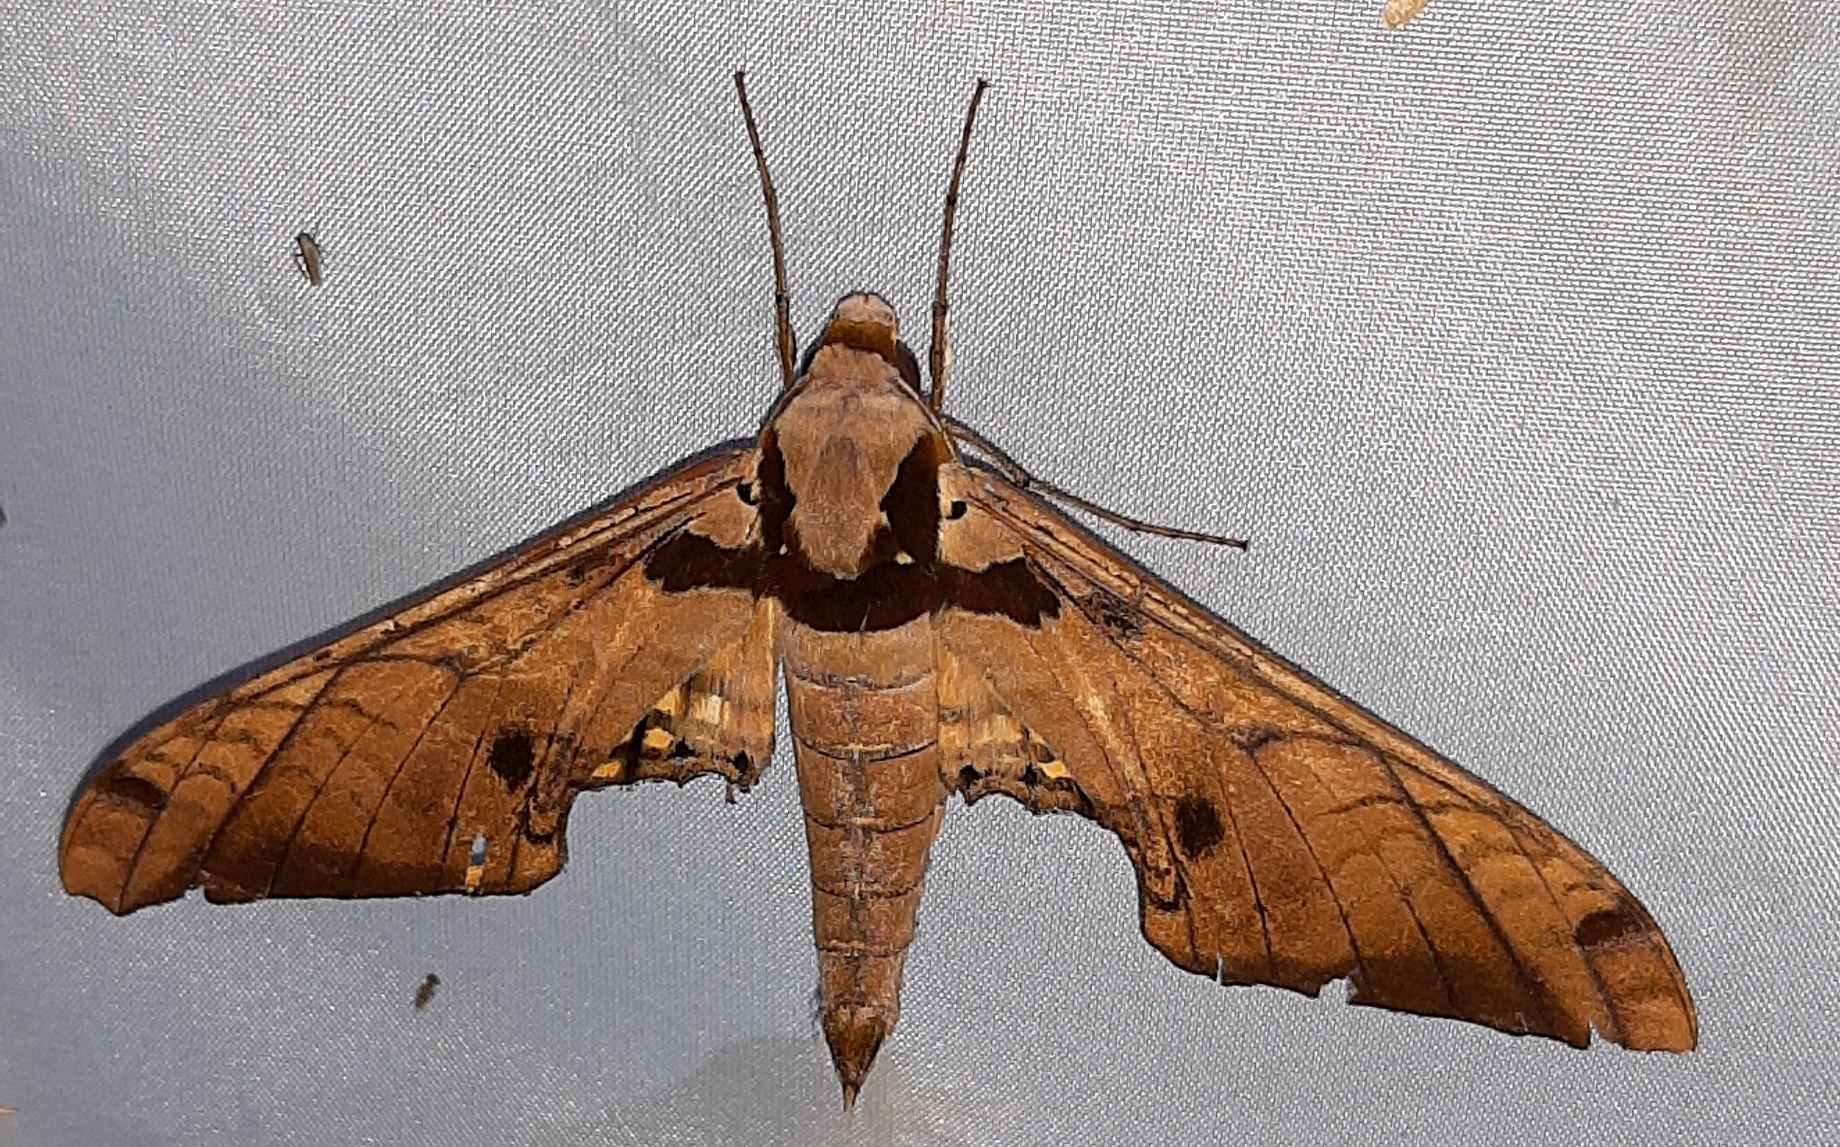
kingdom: Animalia
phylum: Arthropoda
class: Insecta
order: Lepidoptera
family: Sphingidae
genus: Adhemarius
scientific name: Adhemarius tigrina
